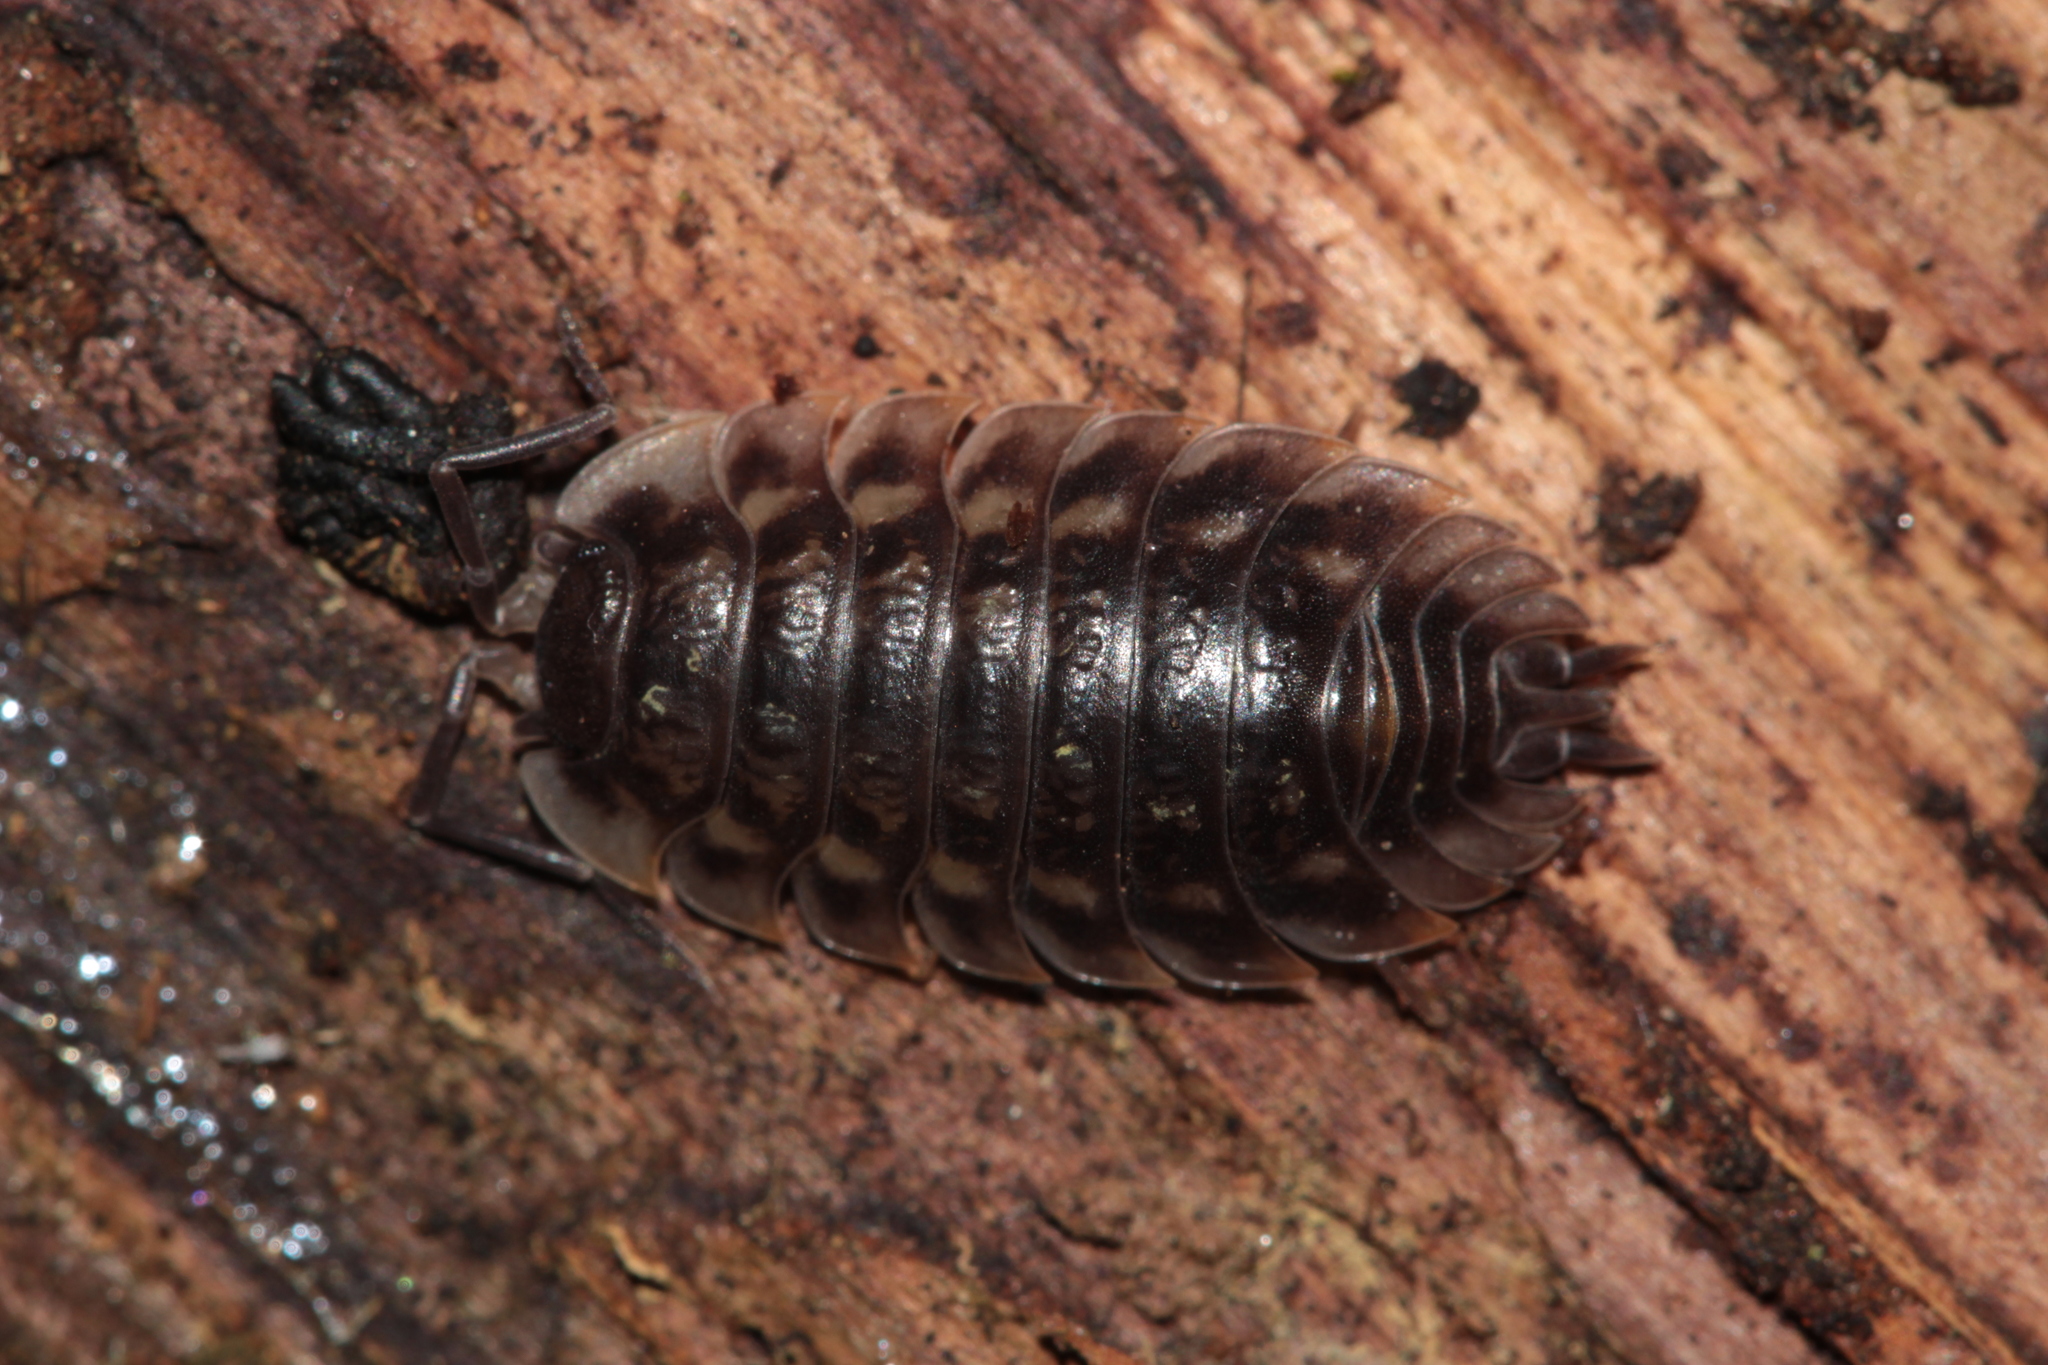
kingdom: Animalia
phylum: Arthropoda
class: Malacostraca
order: Isopoda
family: Oniscidae
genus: Oniscus
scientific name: Oniscus asellus
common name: Common shiny woodlouse
